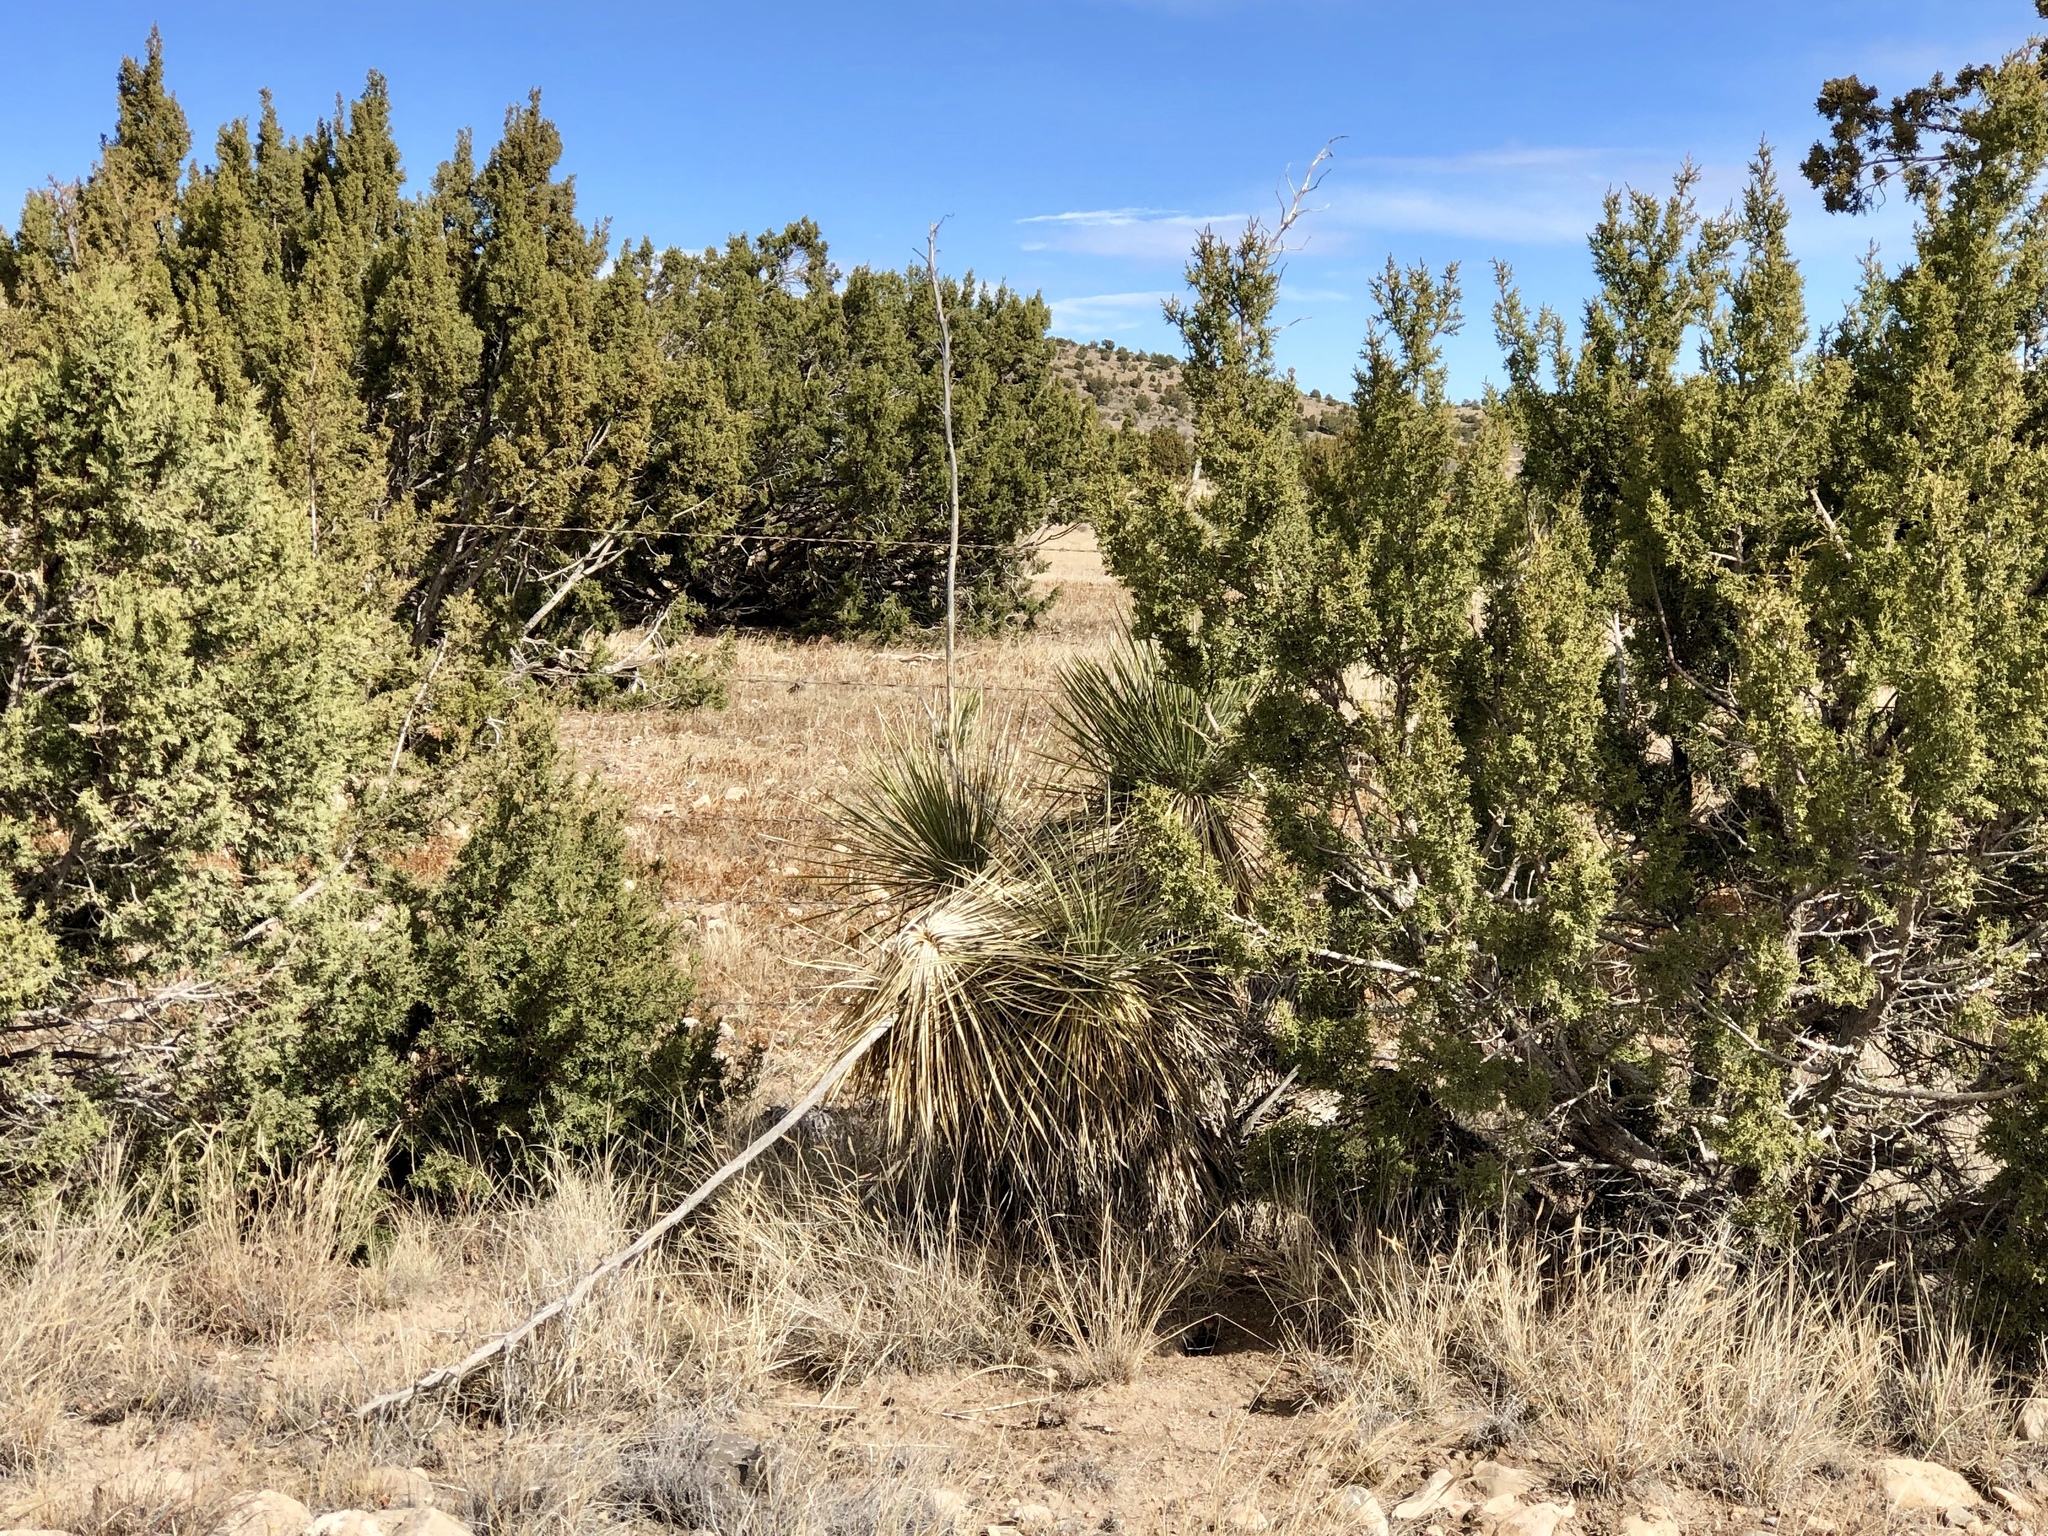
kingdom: Plantae
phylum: Tracheophyta
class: Liliopsida
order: Asparagales
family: Asparagaceae
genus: Yucca
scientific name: Yucca elata
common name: Palmella
